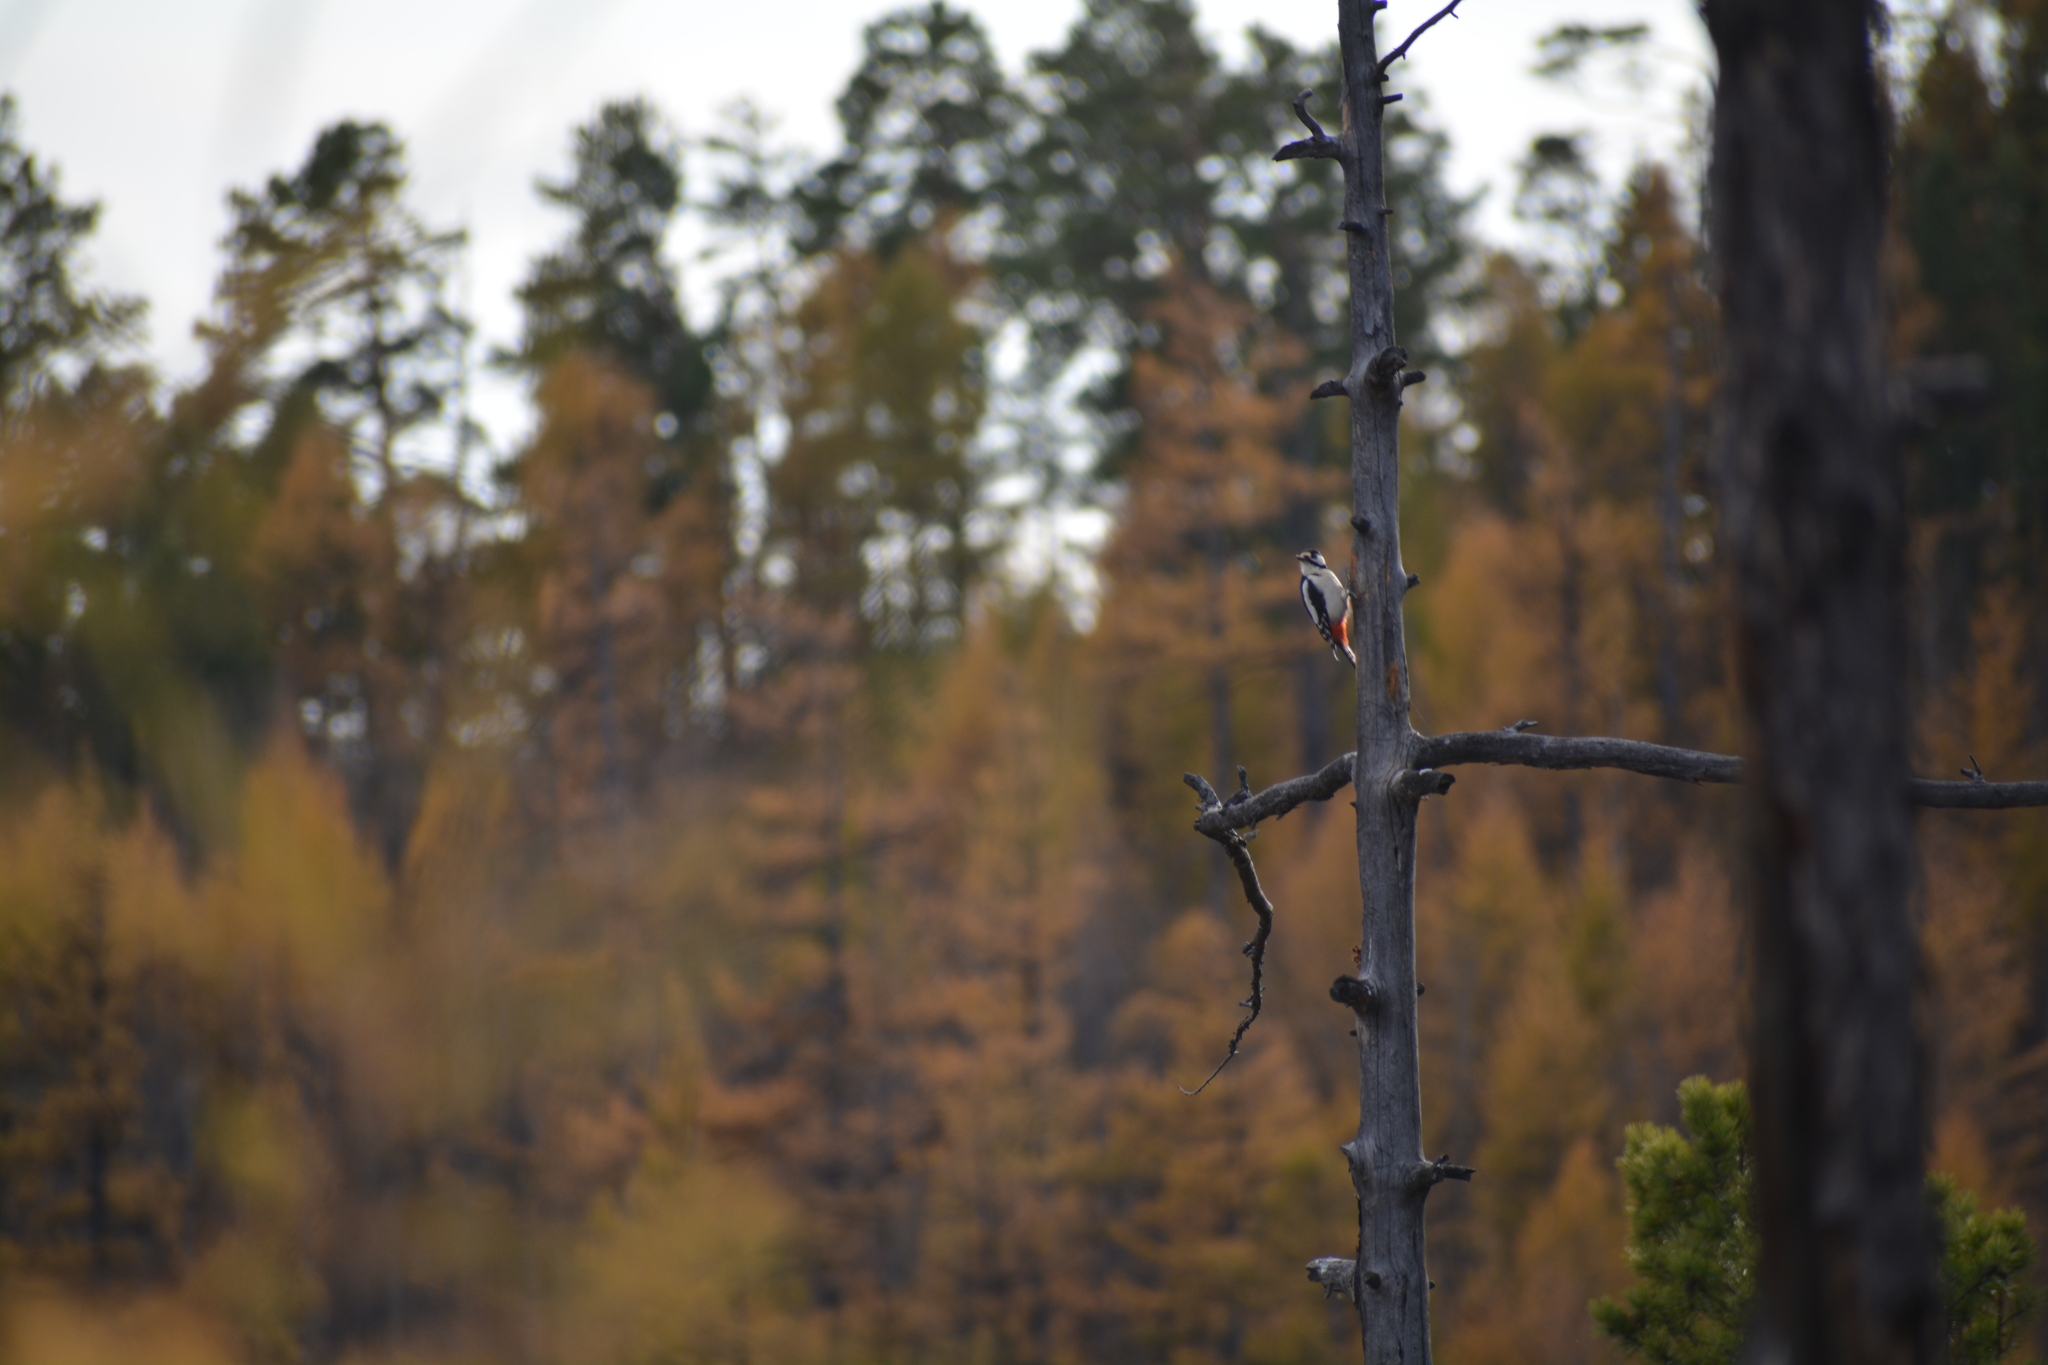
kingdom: Animalia
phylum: Chordata
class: Aves
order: Piciformes
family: Picidae
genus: Dendrocopos
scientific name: Dendrocopos major
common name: Great spotted woodpecker
